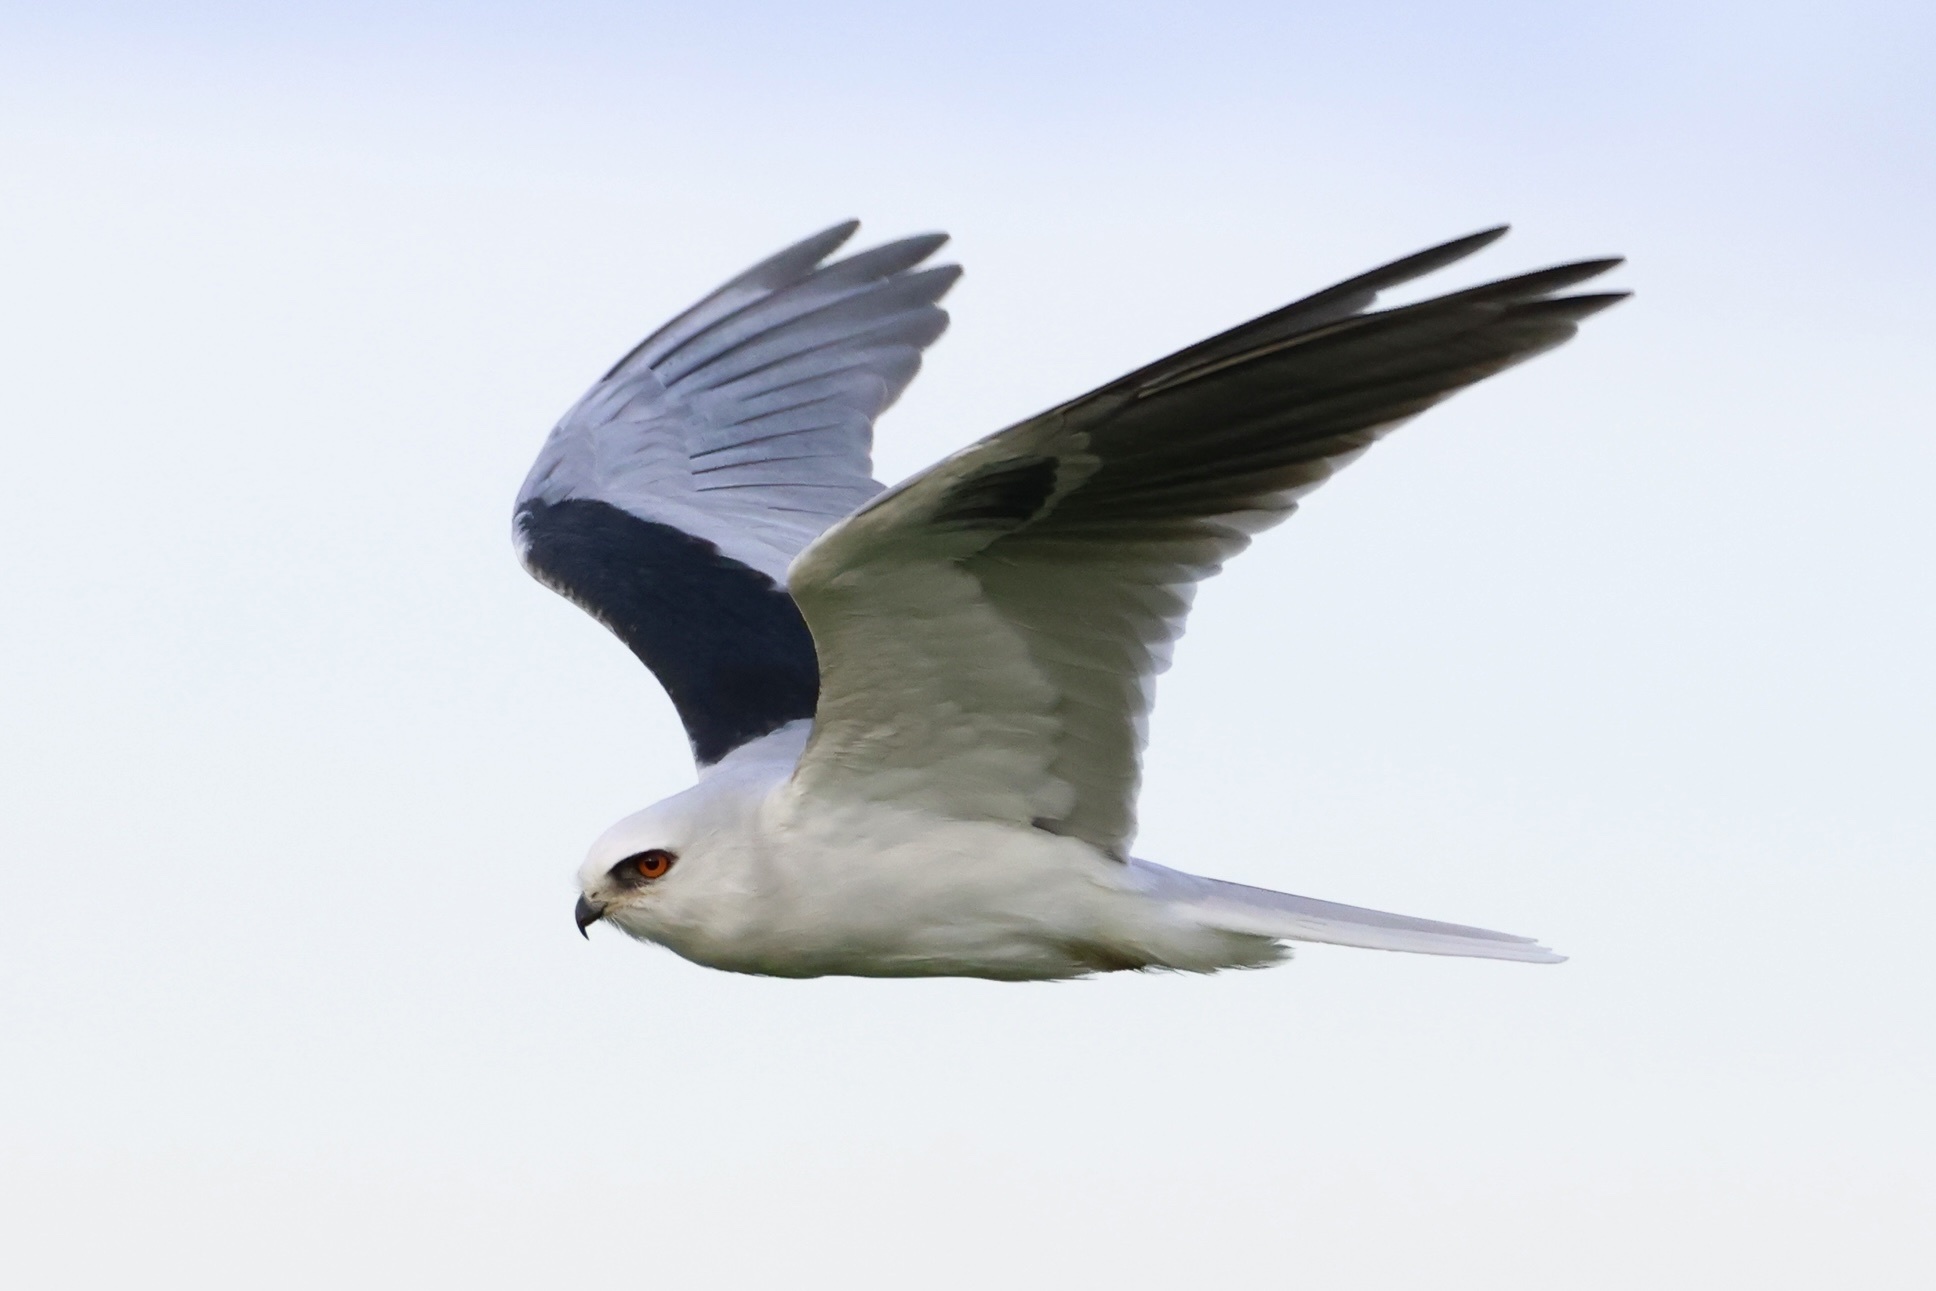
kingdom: Animalia
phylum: Chordata
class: Aves
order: Accipitriformes
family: Accipitridae
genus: Elanus
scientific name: Elanus leucurus
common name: White-tailed kite
